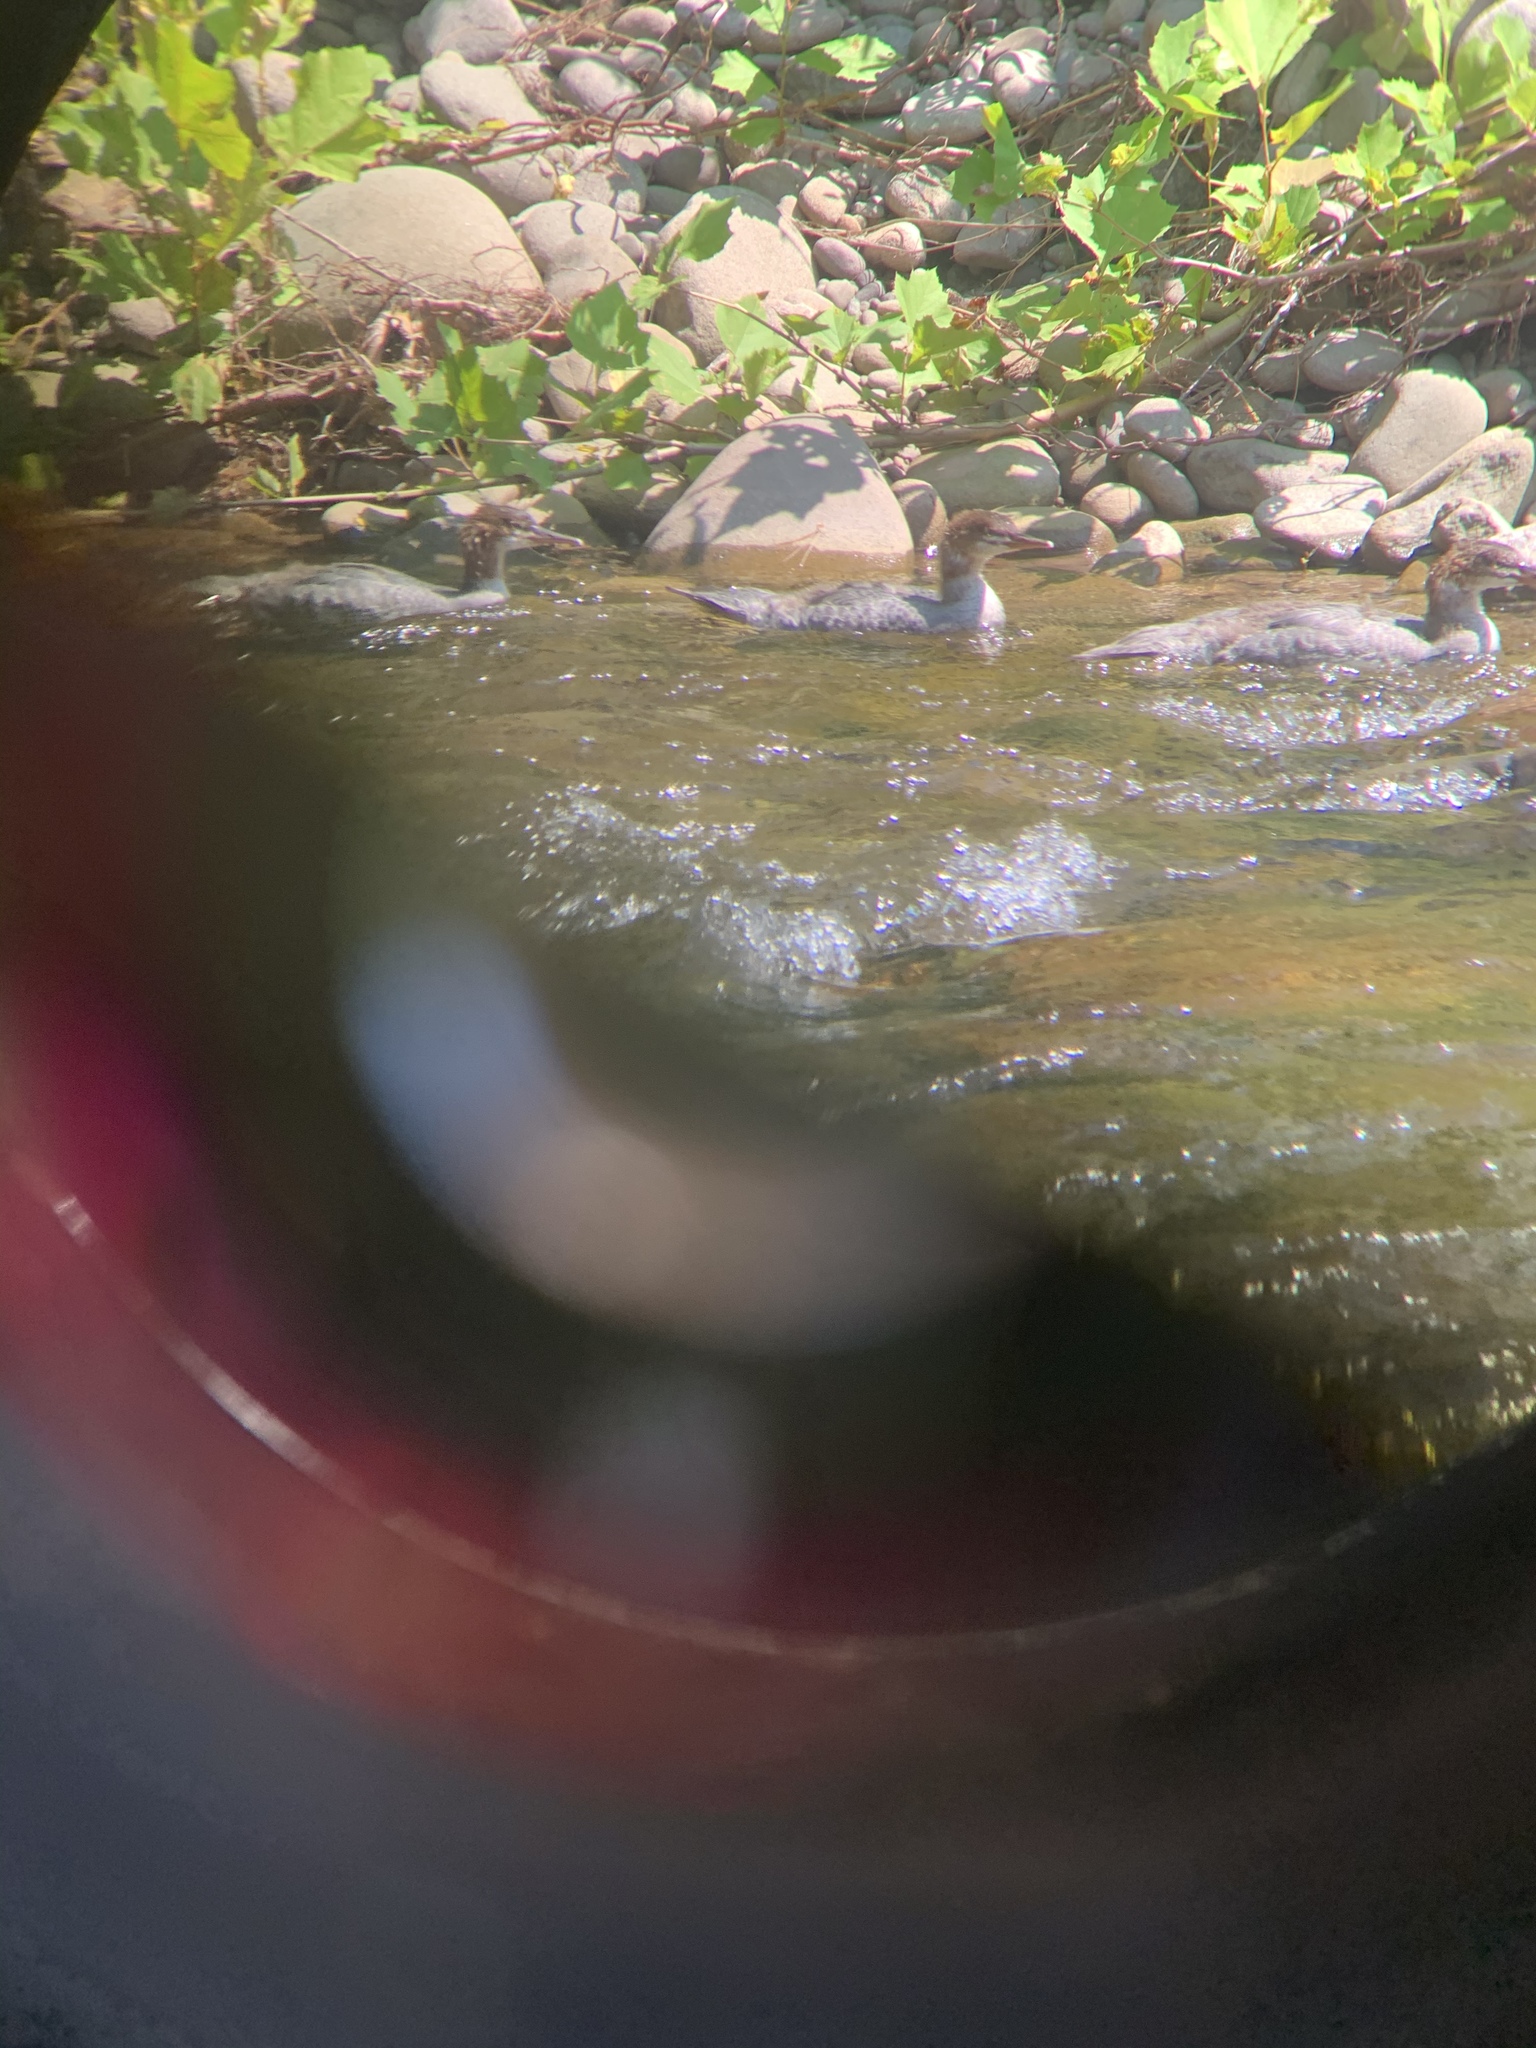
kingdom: Animalia
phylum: Chordata
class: Aves
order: Anseriformes
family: Anatidae
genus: Mergus
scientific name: Mergus merganser
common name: Common merganser
